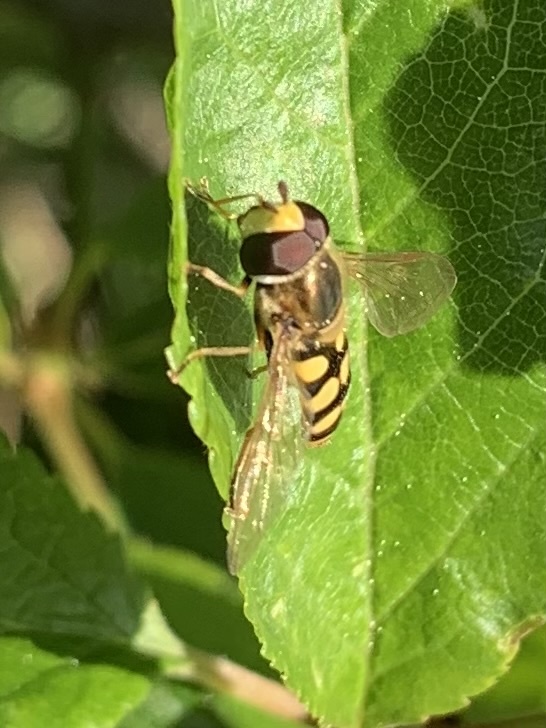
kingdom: Animalia
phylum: Arthropoda
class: Insecta
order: Diptera
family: Syrphidae
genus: Eupeodes
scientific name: Eupeodes corollae
